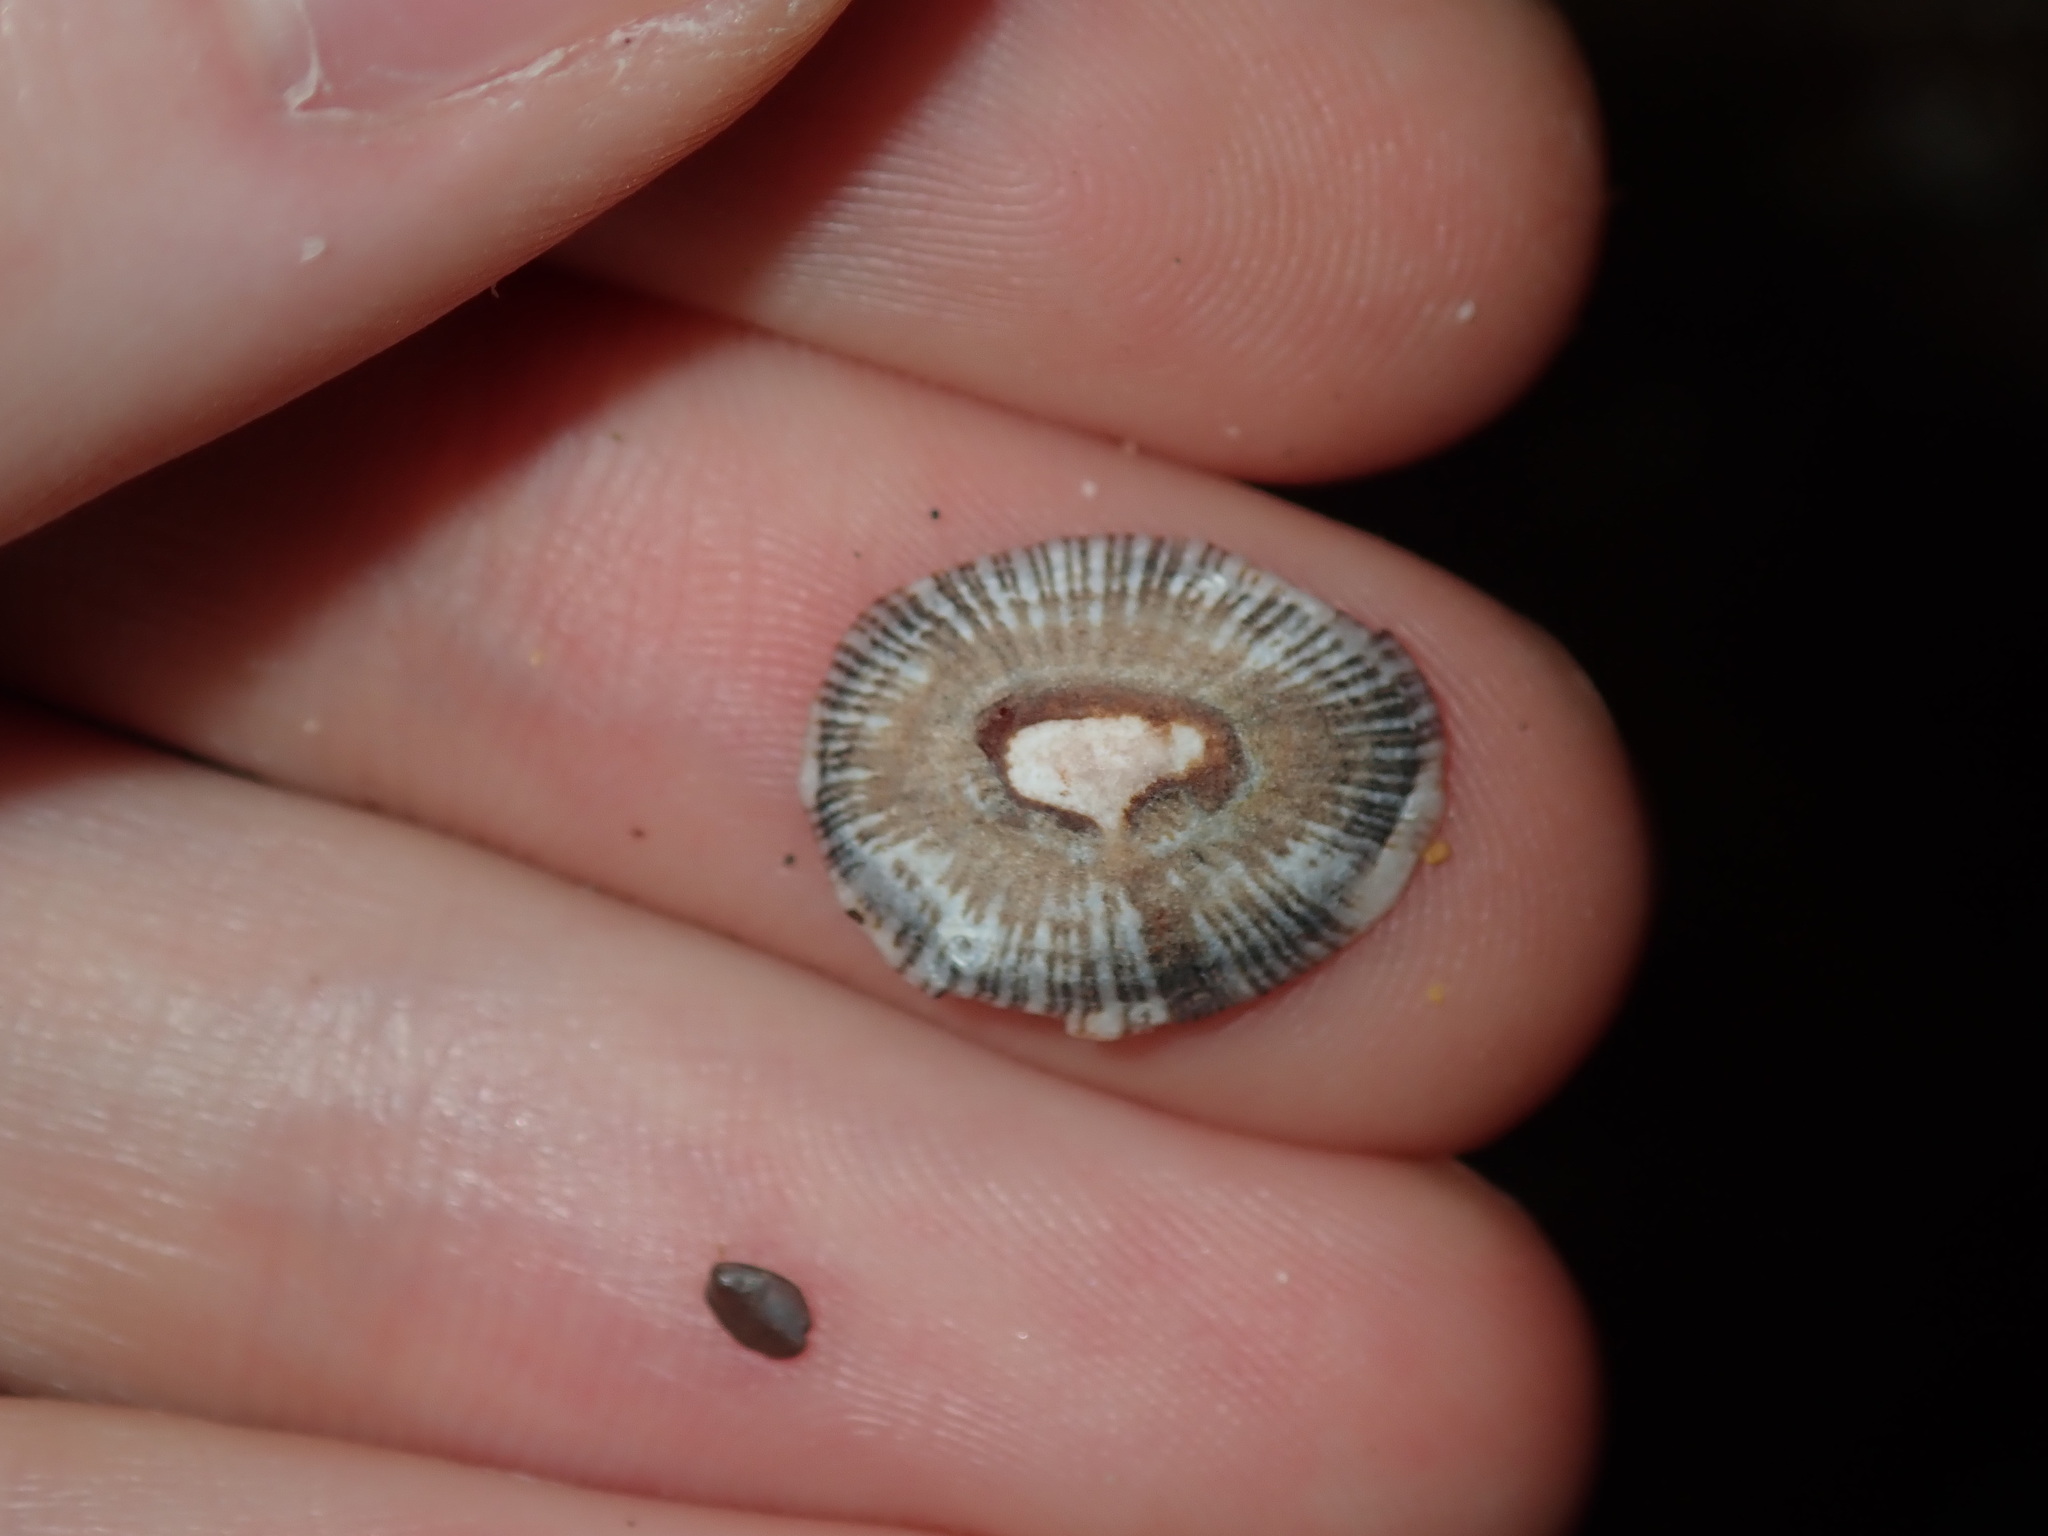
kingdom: Animalia
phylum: Mollusca
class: Gastropoda
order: Siphonariida
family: Siphonariidae
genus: Siphonaria
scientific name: Siphonaria funiculata
